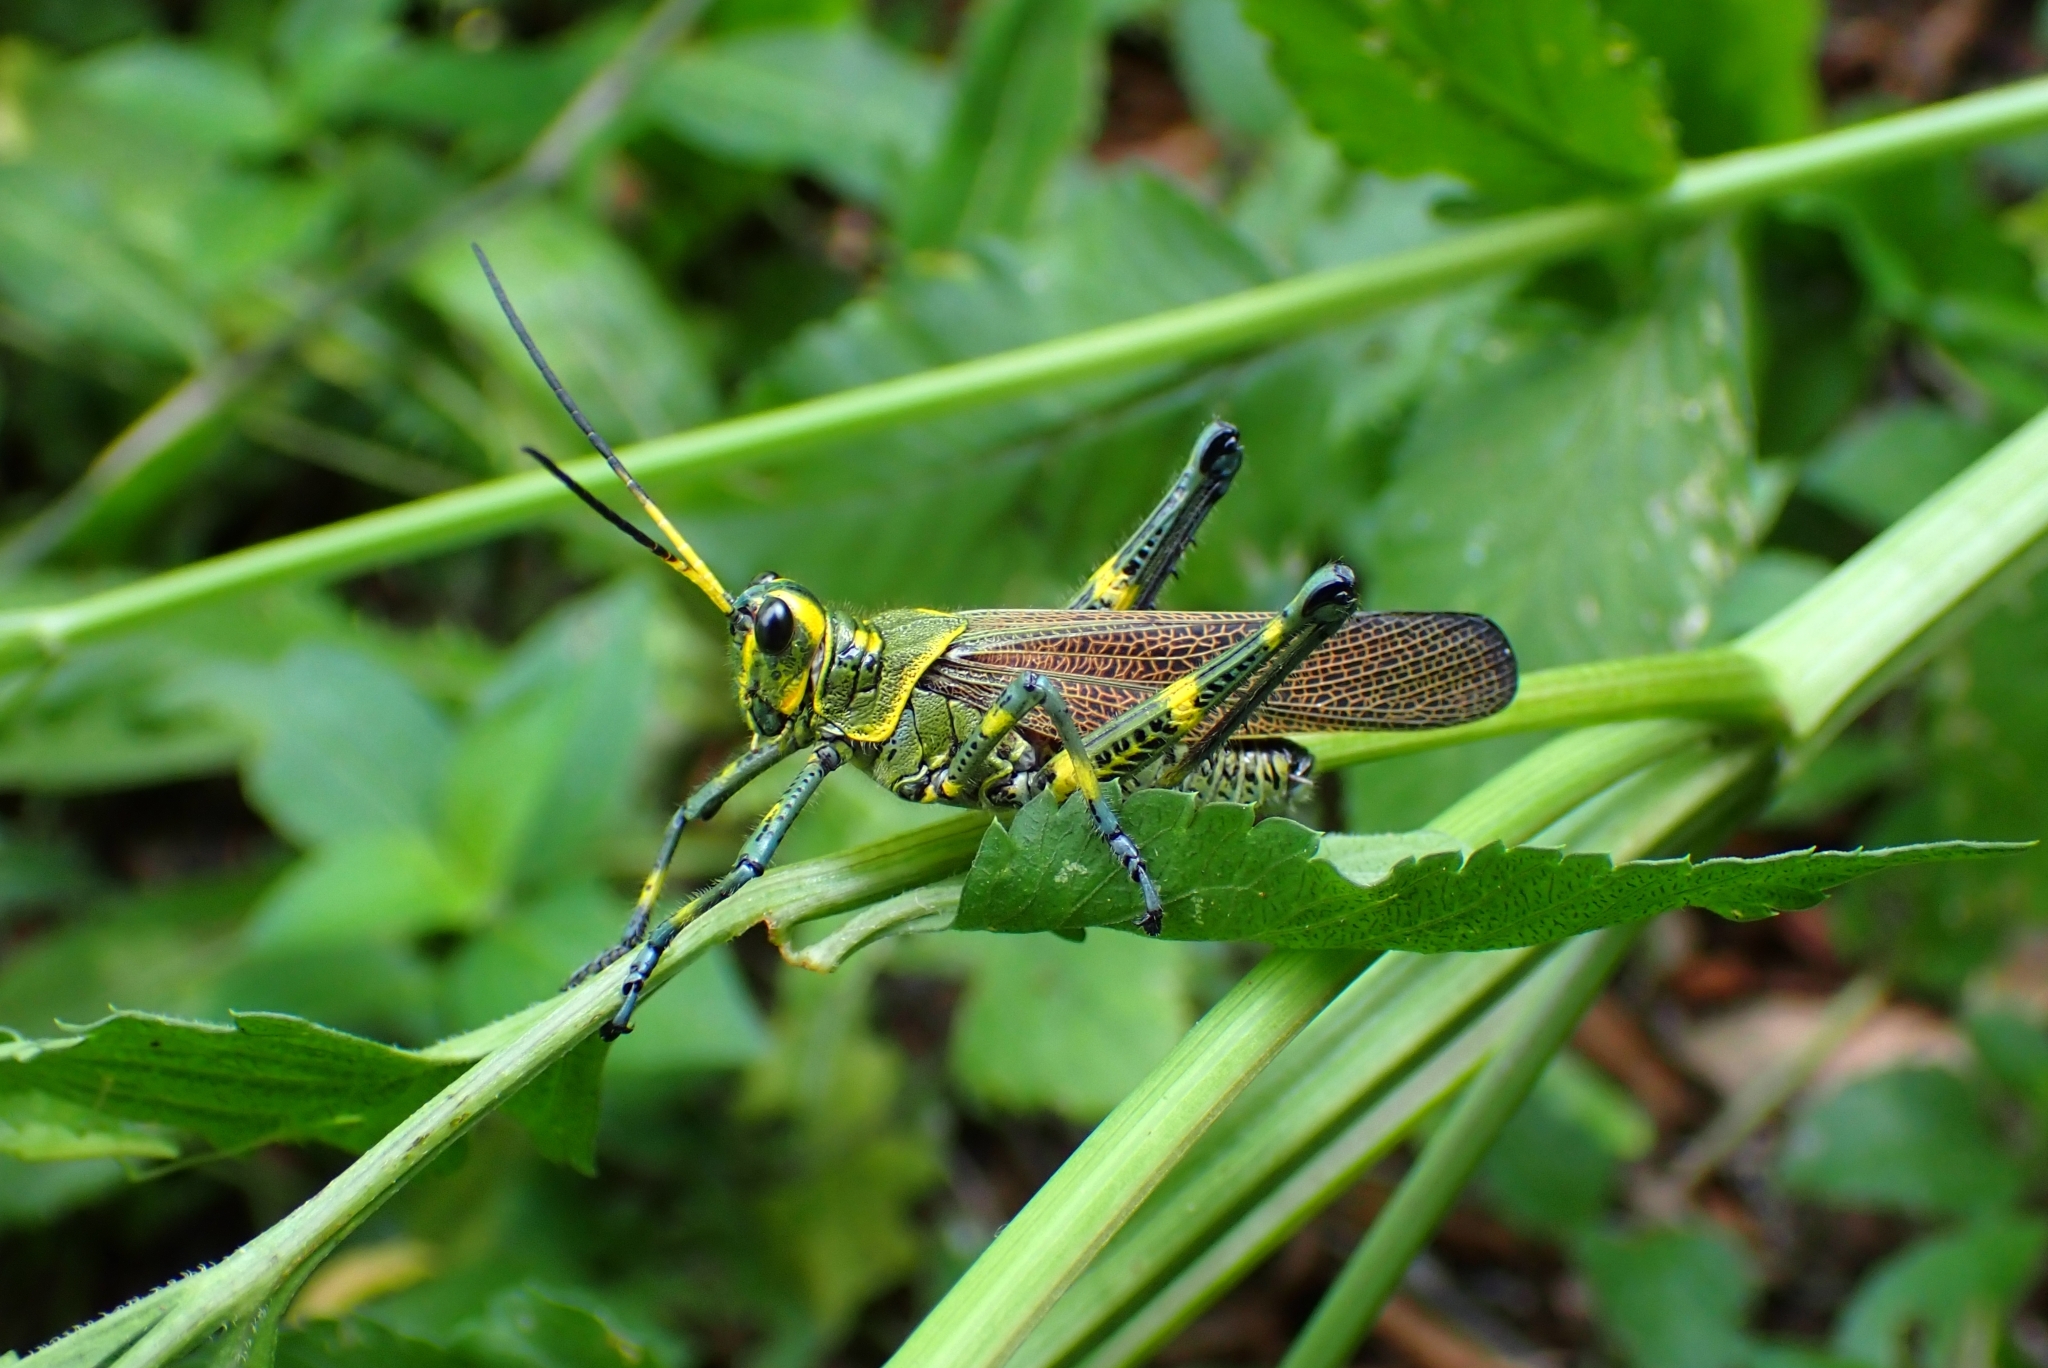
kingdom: Animalia
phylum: Arthropoda
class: Insecta
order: Orthoptera
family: Romaleidae
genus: Chromacris
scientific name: Chromacris colorata
